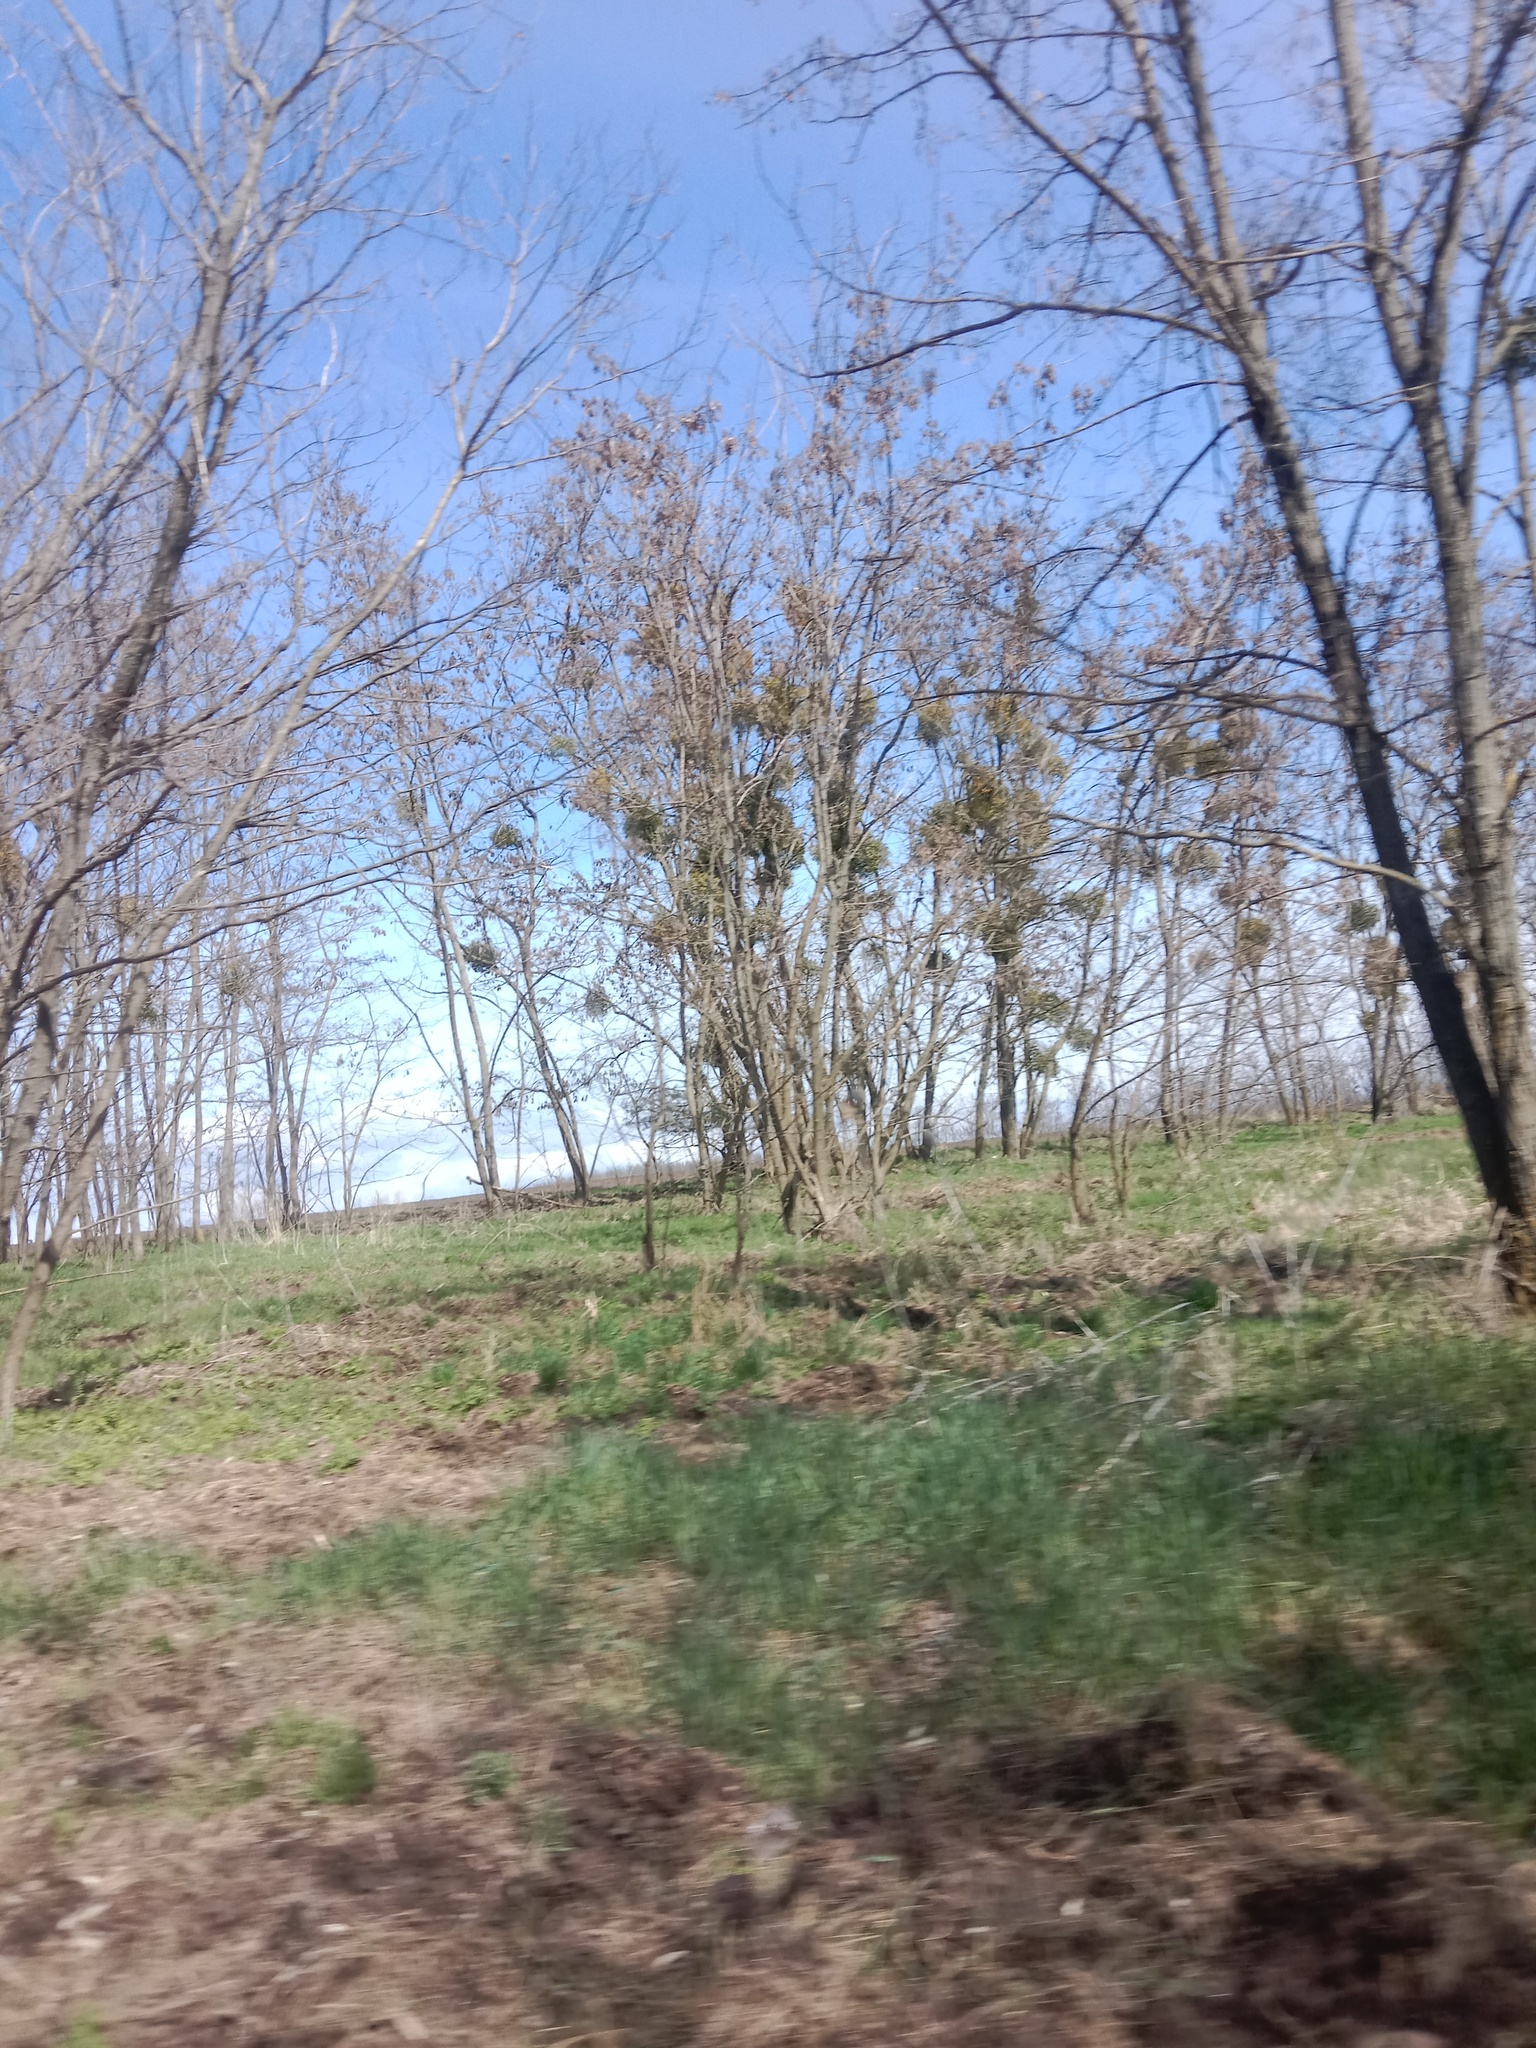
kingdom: Plantae
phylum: Tracheophyta
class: Magnoliopsida
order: Santalales
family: Viscaceae
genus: Viscum
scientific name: Viscum album
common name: Mistletoe
